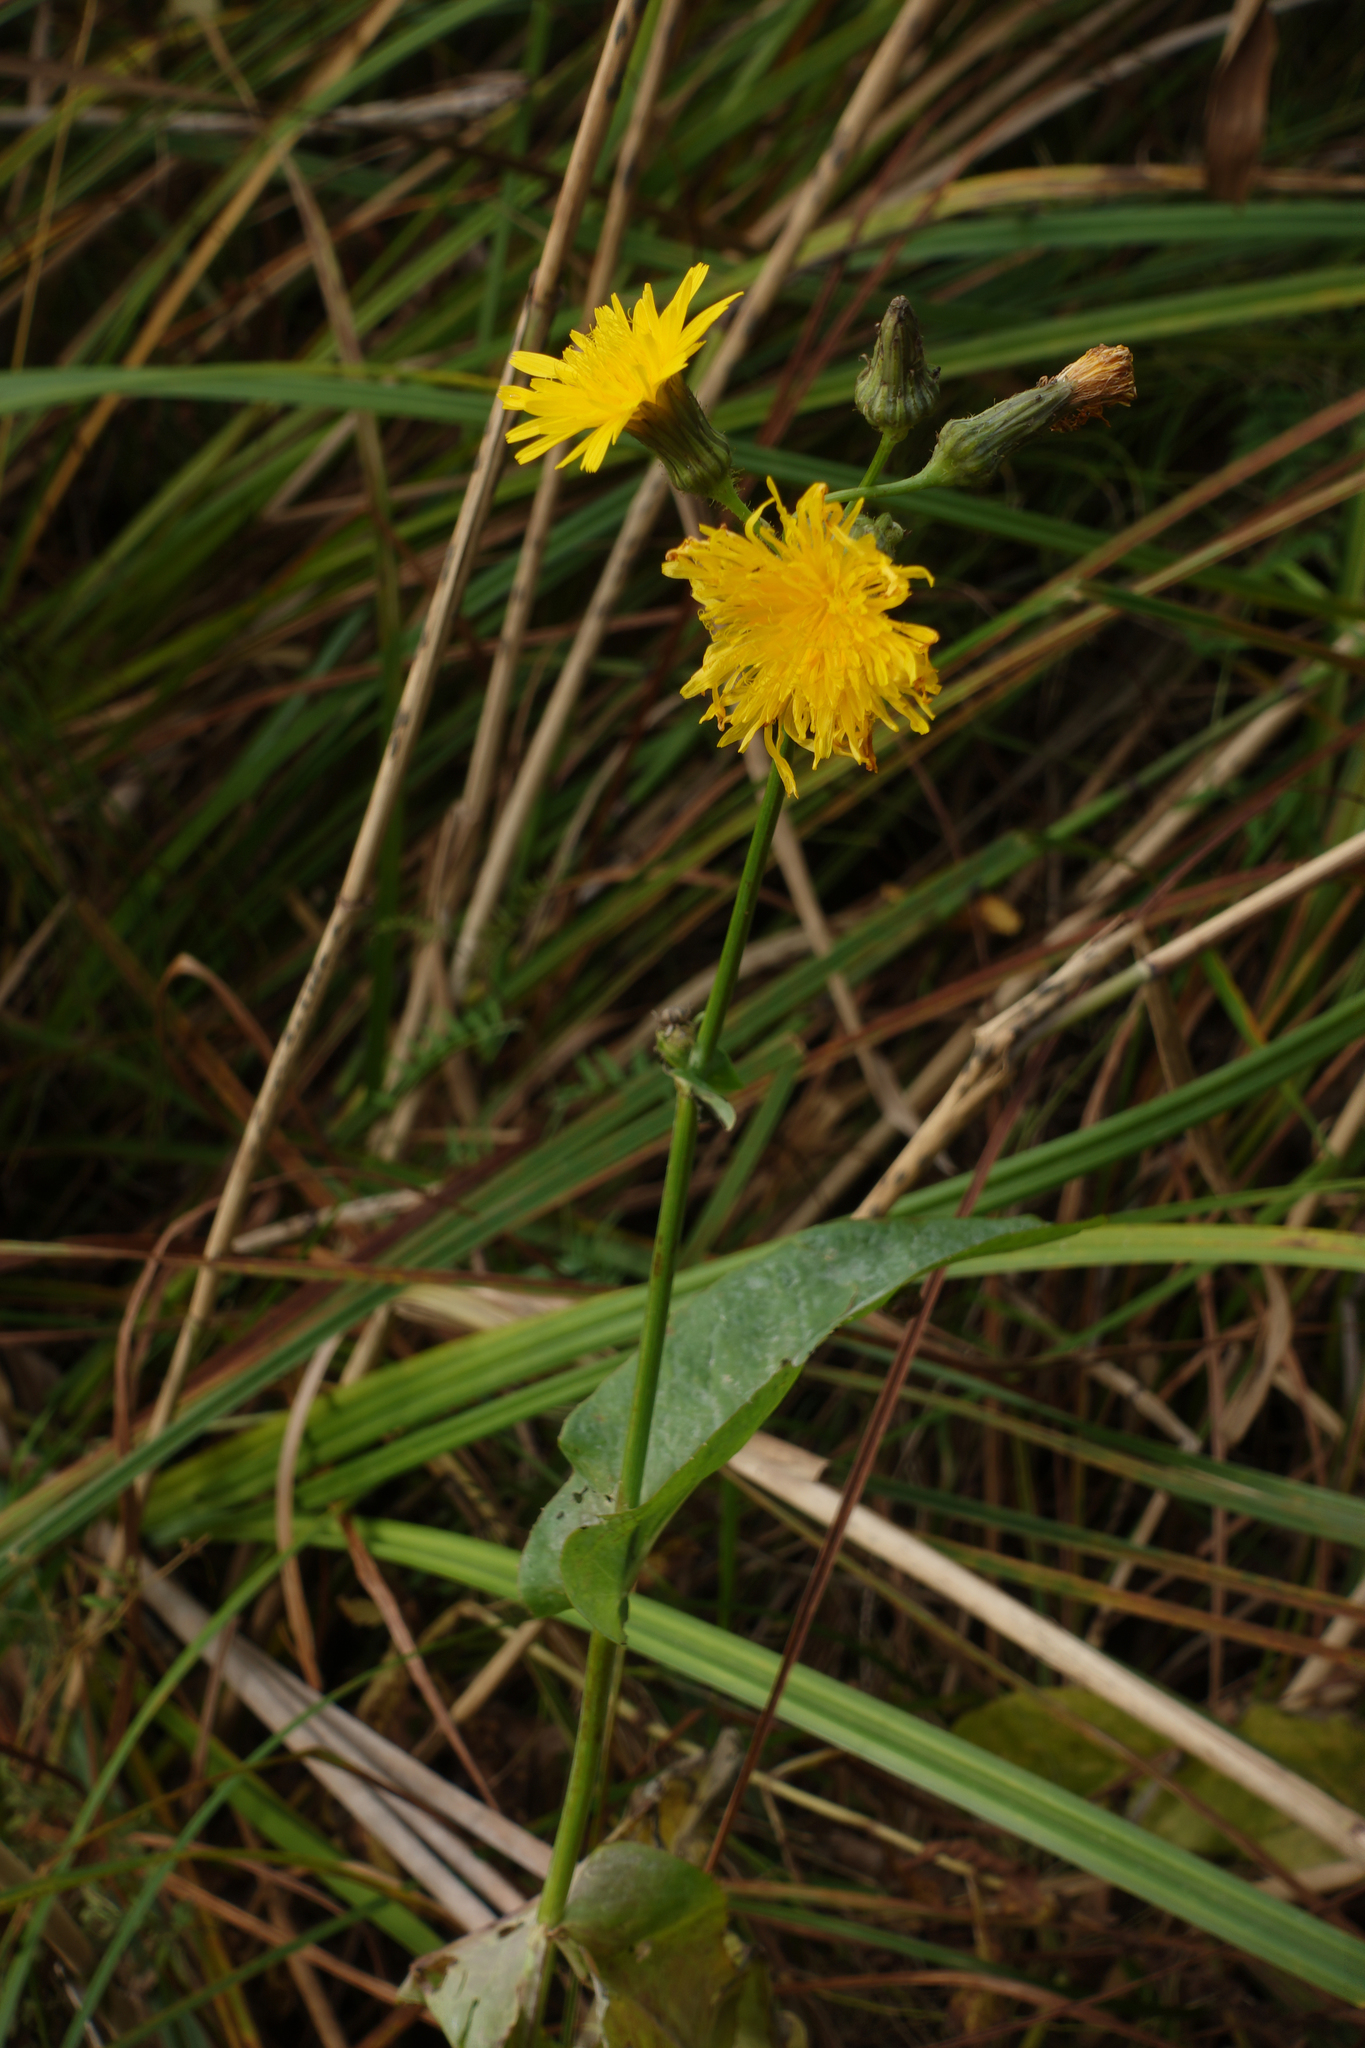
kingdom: Plantae
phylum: Tracheophyta
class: Magnoliopsida
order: Asterales
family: Asteraceae
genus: Sonchus
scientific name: Sonchus arvensis
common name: Perennial sow-thistle
